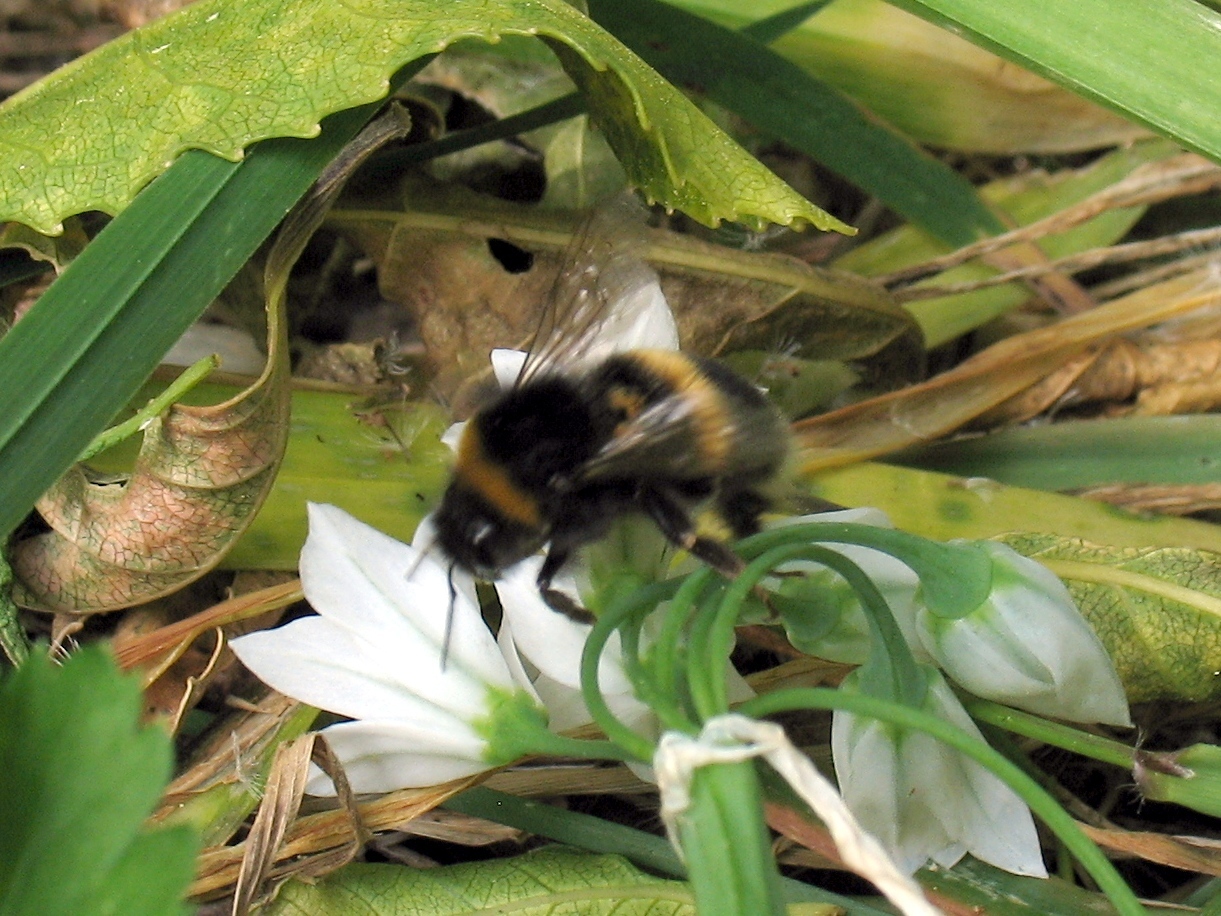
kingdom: Animalia
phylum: Arthropoda
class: Insecta
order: Hymenoptera
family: Apidae
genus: Bombus
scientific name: Bombus terrestris
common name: Buff-tailed bumblebee
